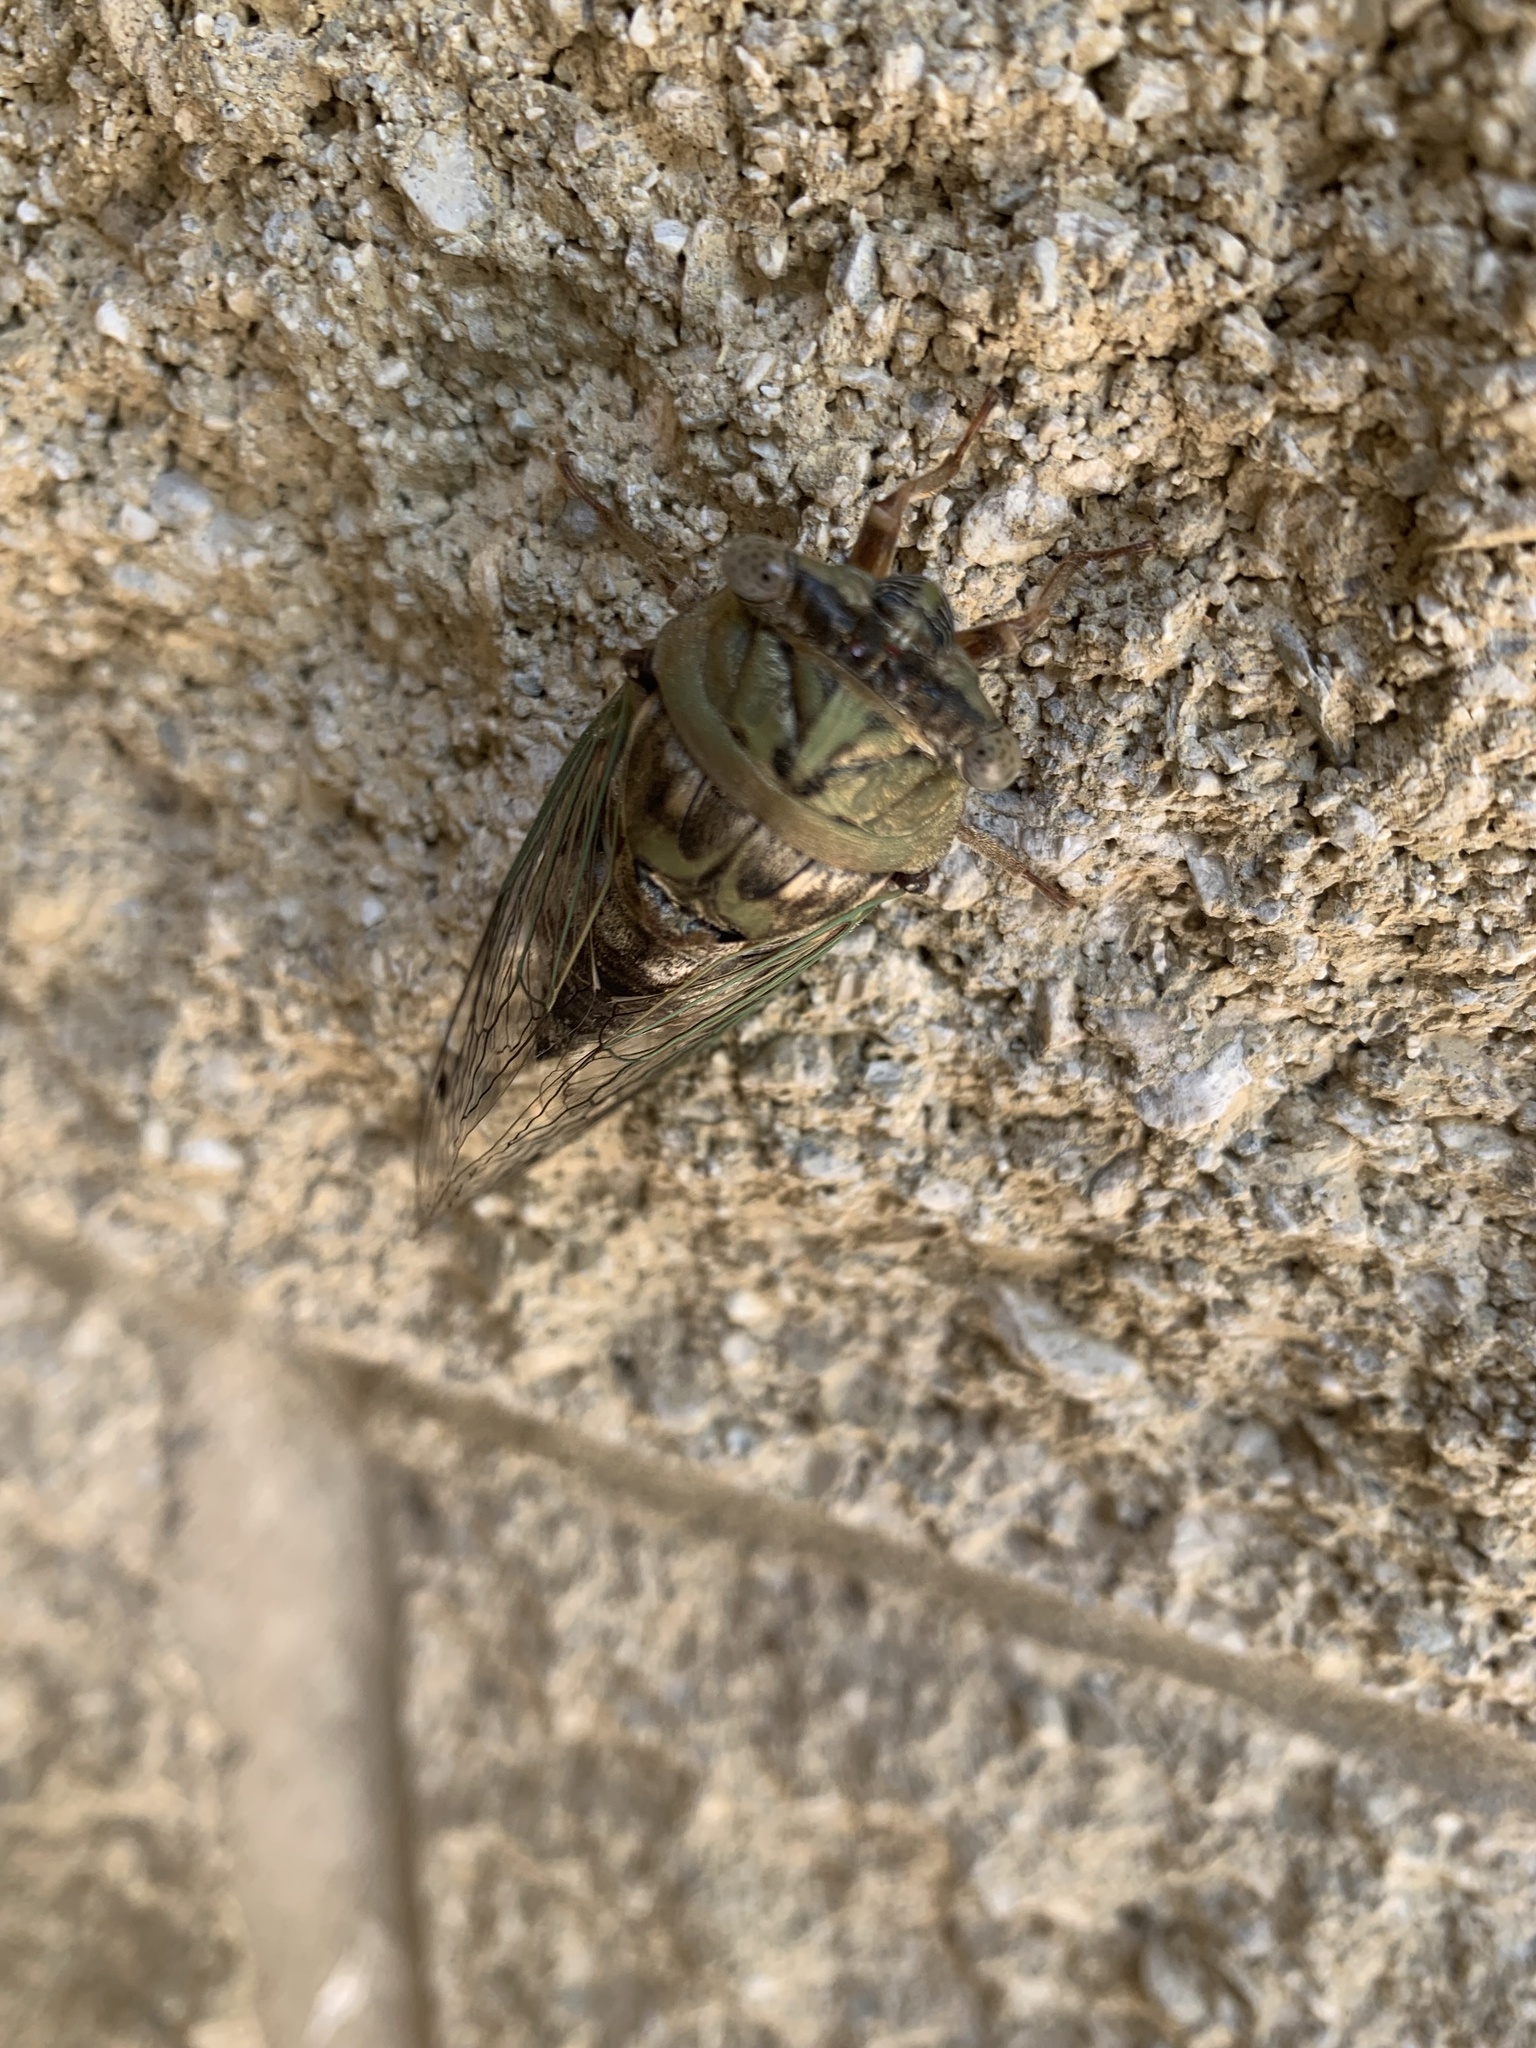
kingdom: Animalia
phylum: Arthropoda
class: Insecta
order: Hemiptera
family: Cicadidae
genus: Megatibicen
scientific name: Megatibicen resh
